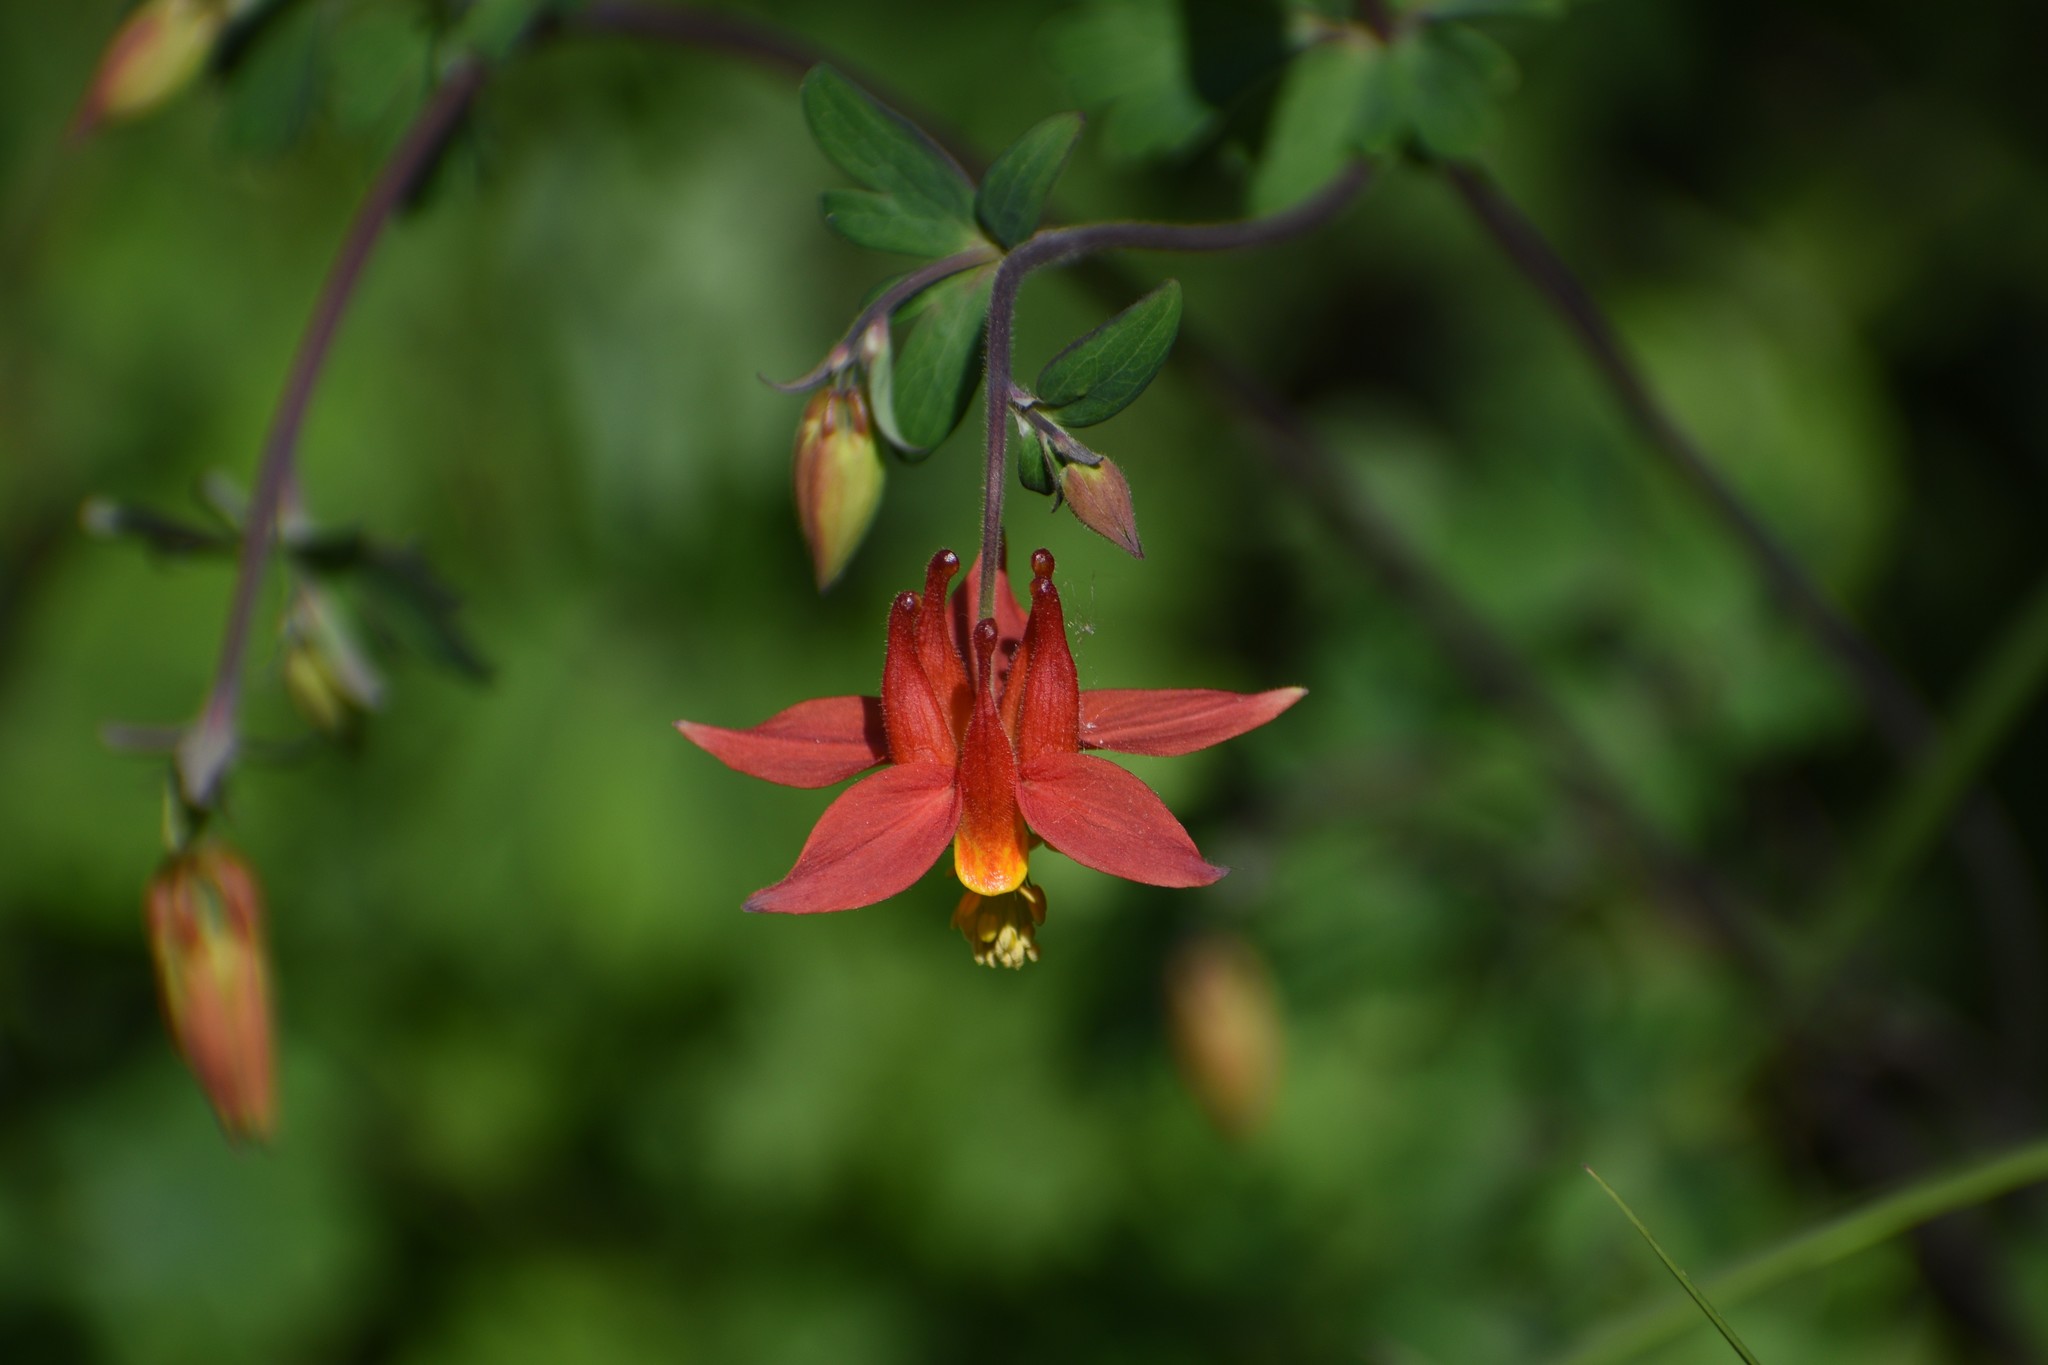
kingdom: Plantae
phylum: Tracheophyta
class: Magnoliopsida
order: Ranunculales
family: Ranunculaceae
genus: Aquilegia
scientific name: Aquilegia formosa
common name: Sitka columbine
